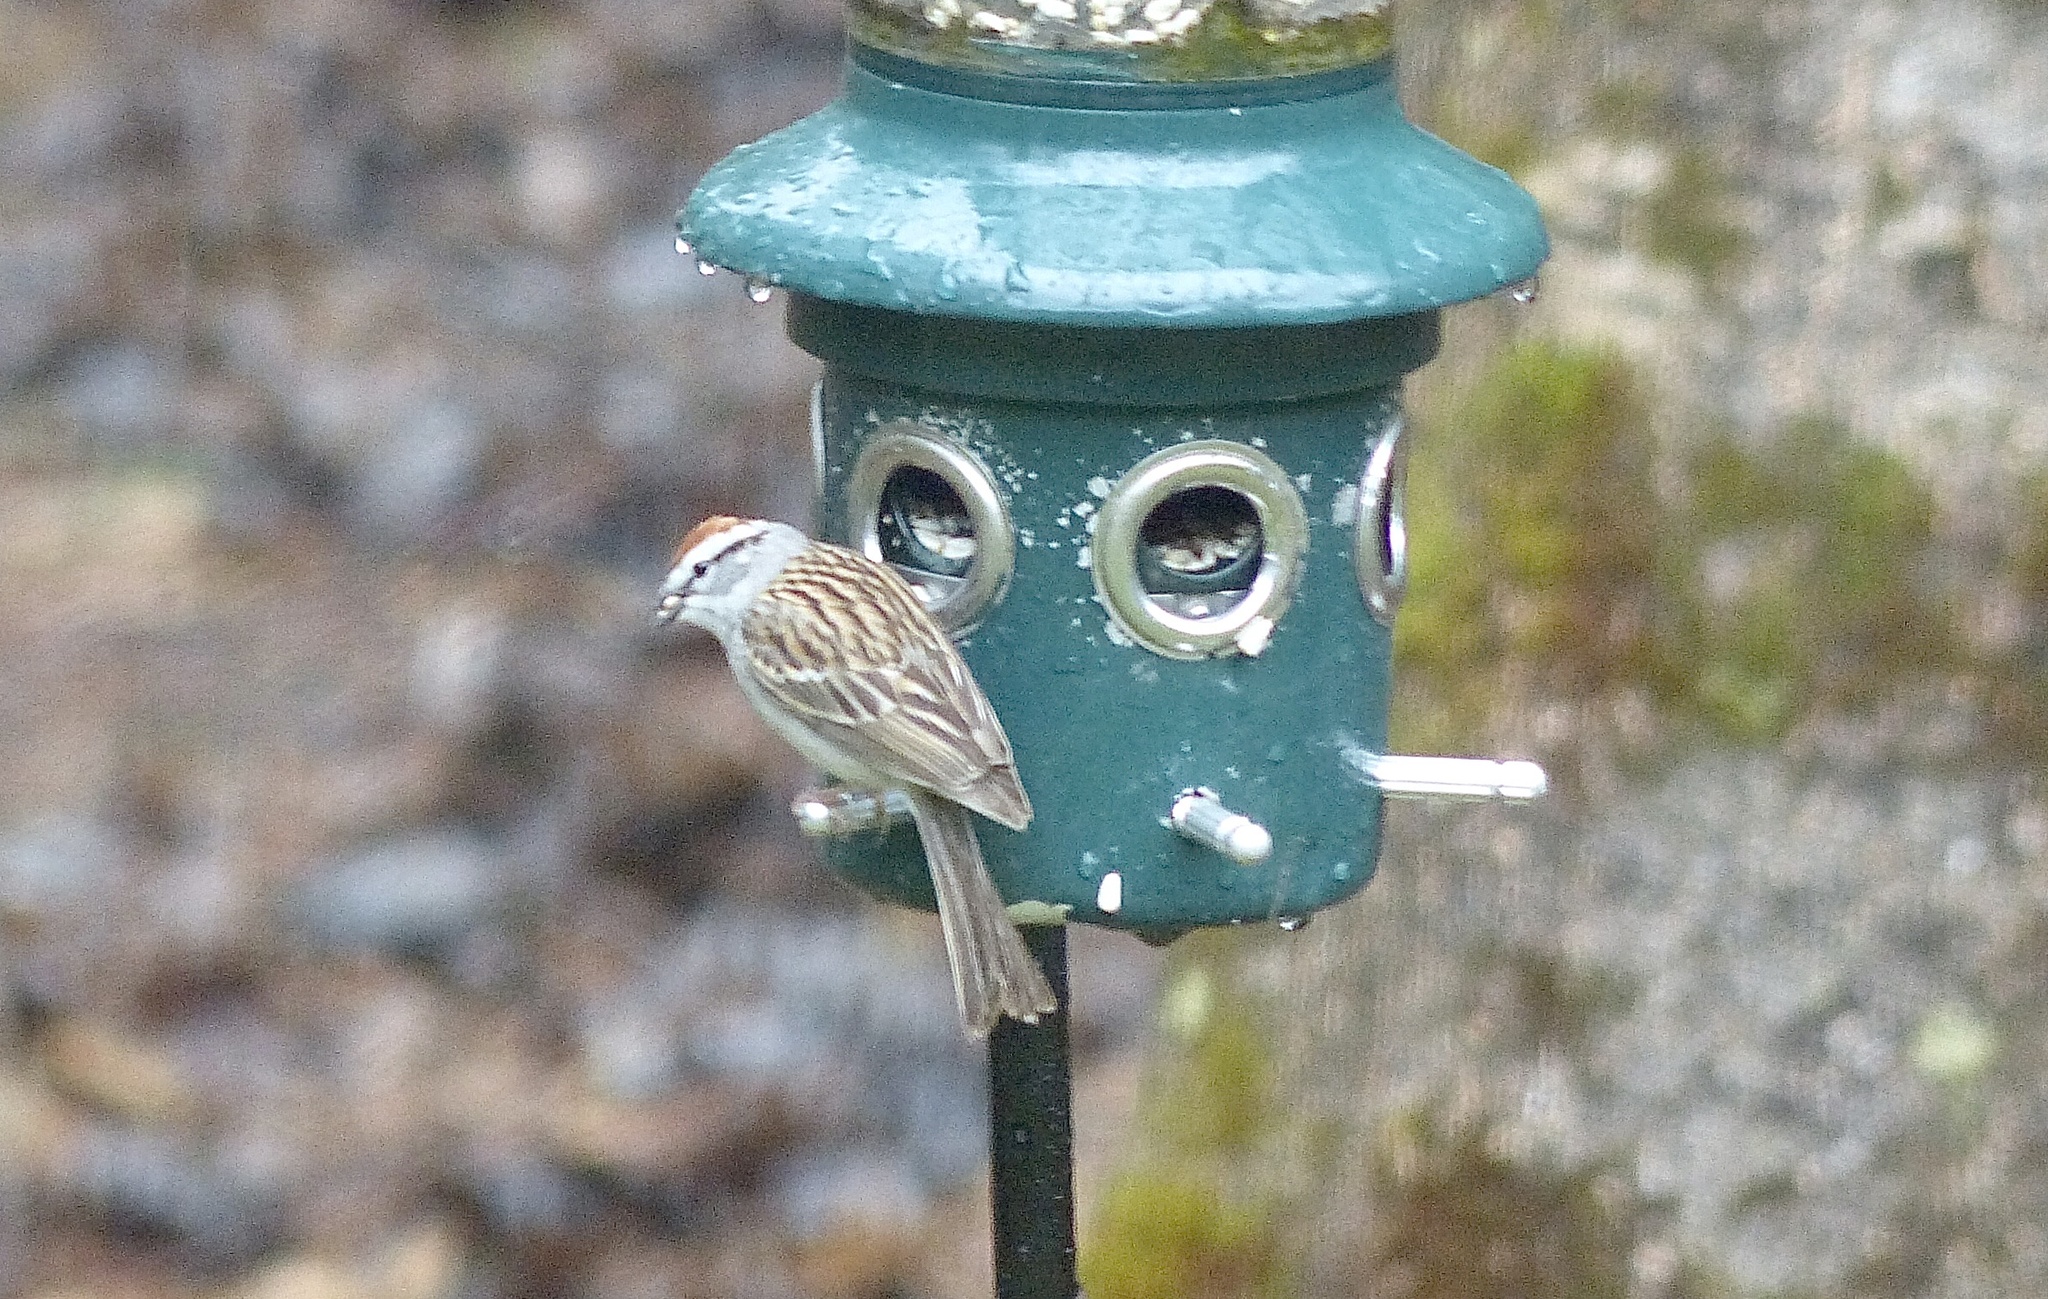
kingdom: Animalia
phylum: Chordata
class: Aves
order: Passeriformes
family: Passerellidae
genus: Spizella
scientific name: Spizella passerina
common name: Chipping sparrow
